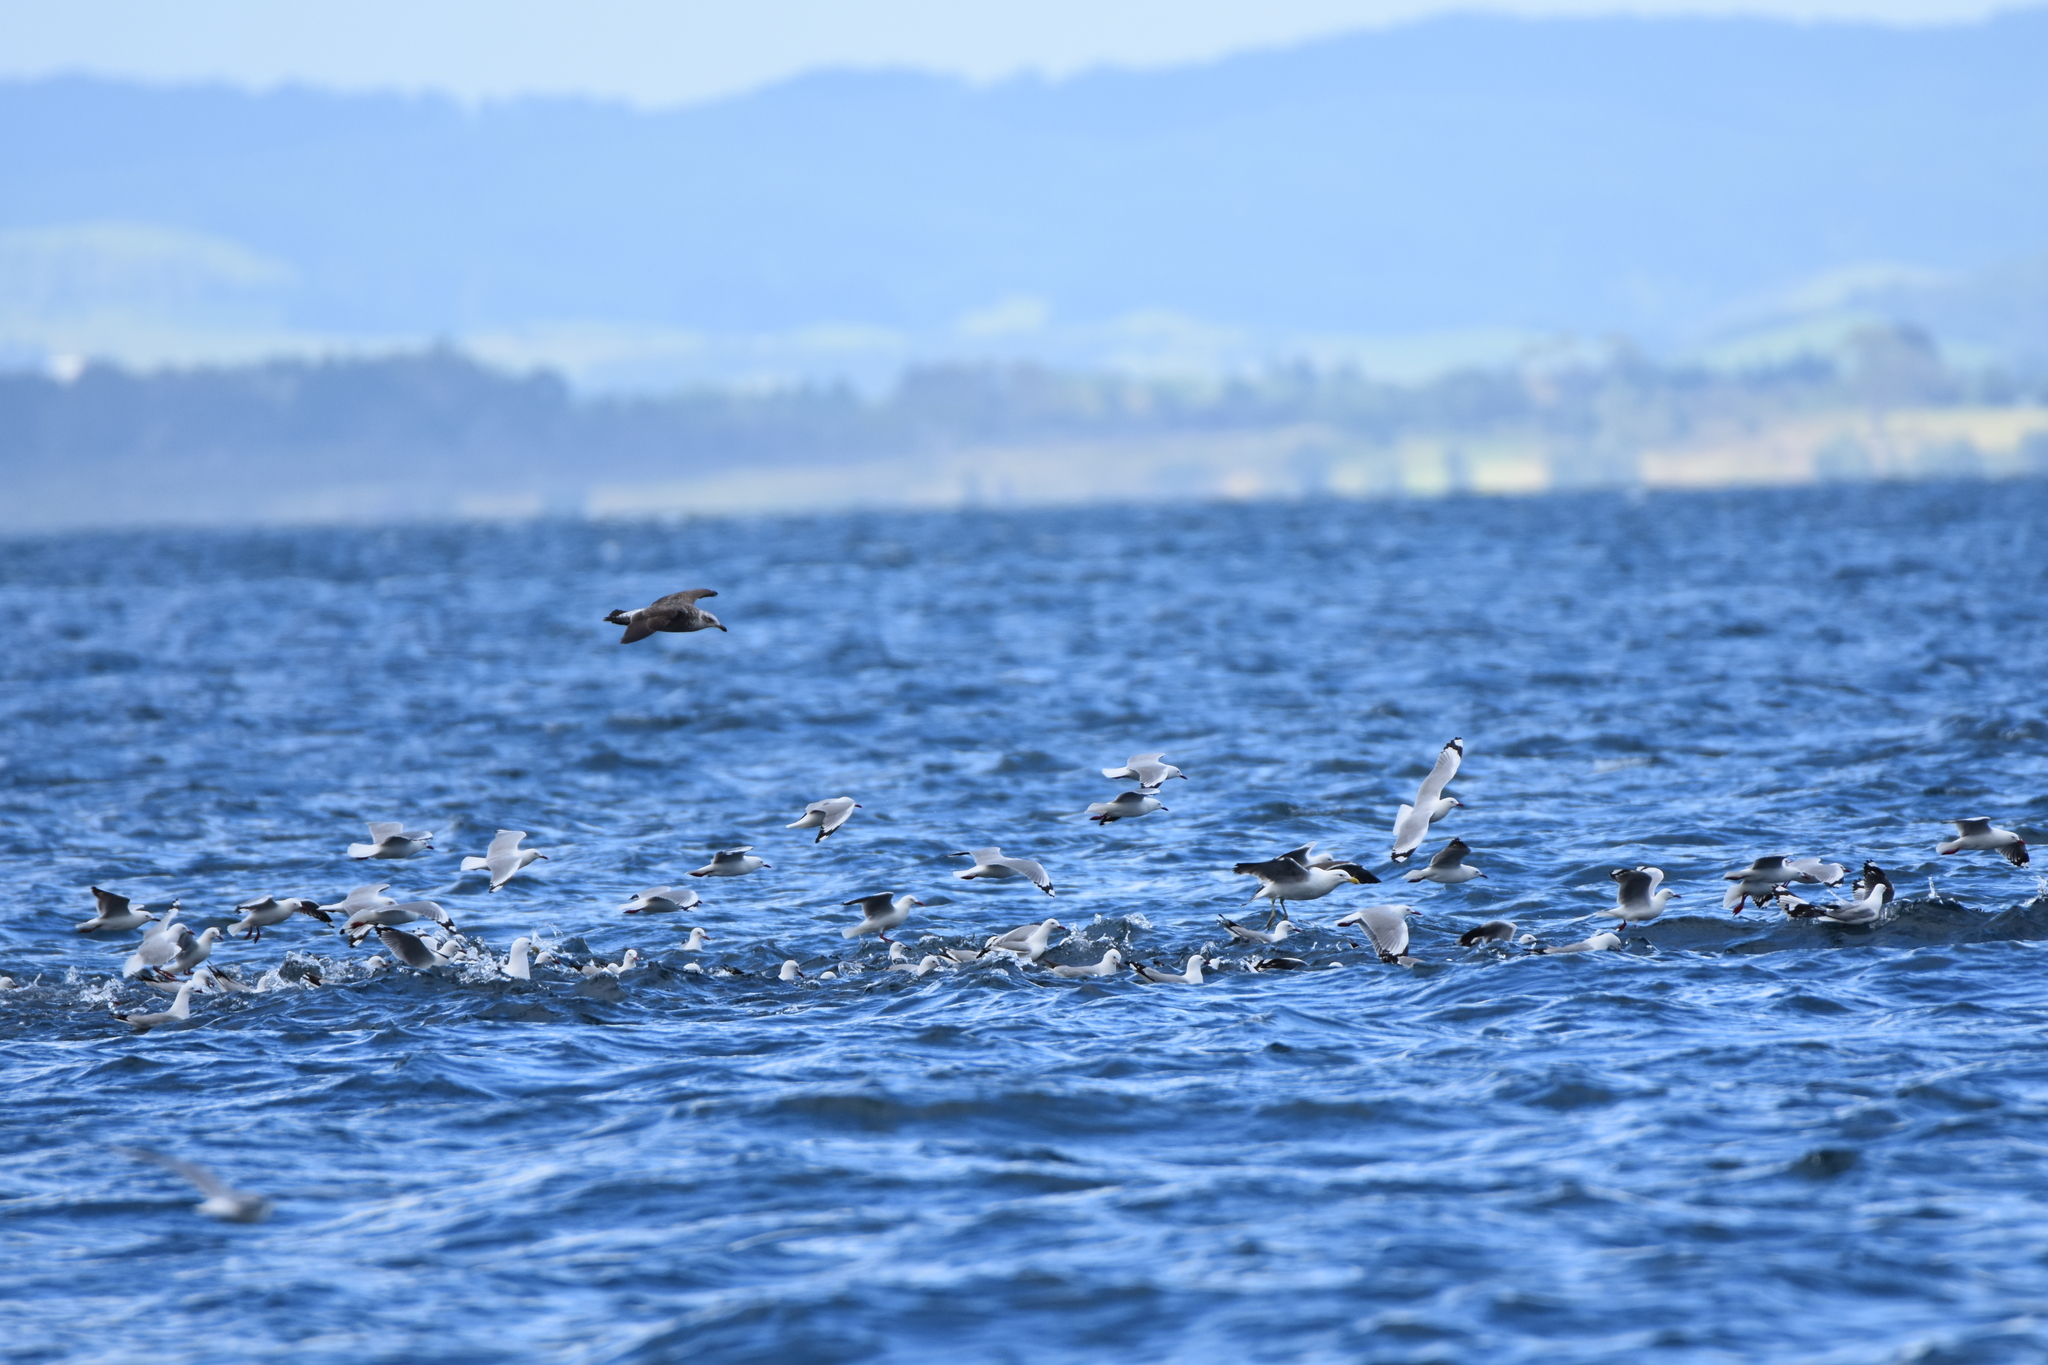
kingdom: Animalia
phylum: Chordata
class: Aves
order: Charadriiformes
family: Laridae
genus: Larus
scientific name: Larus dominicanus
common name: Kelp gull
